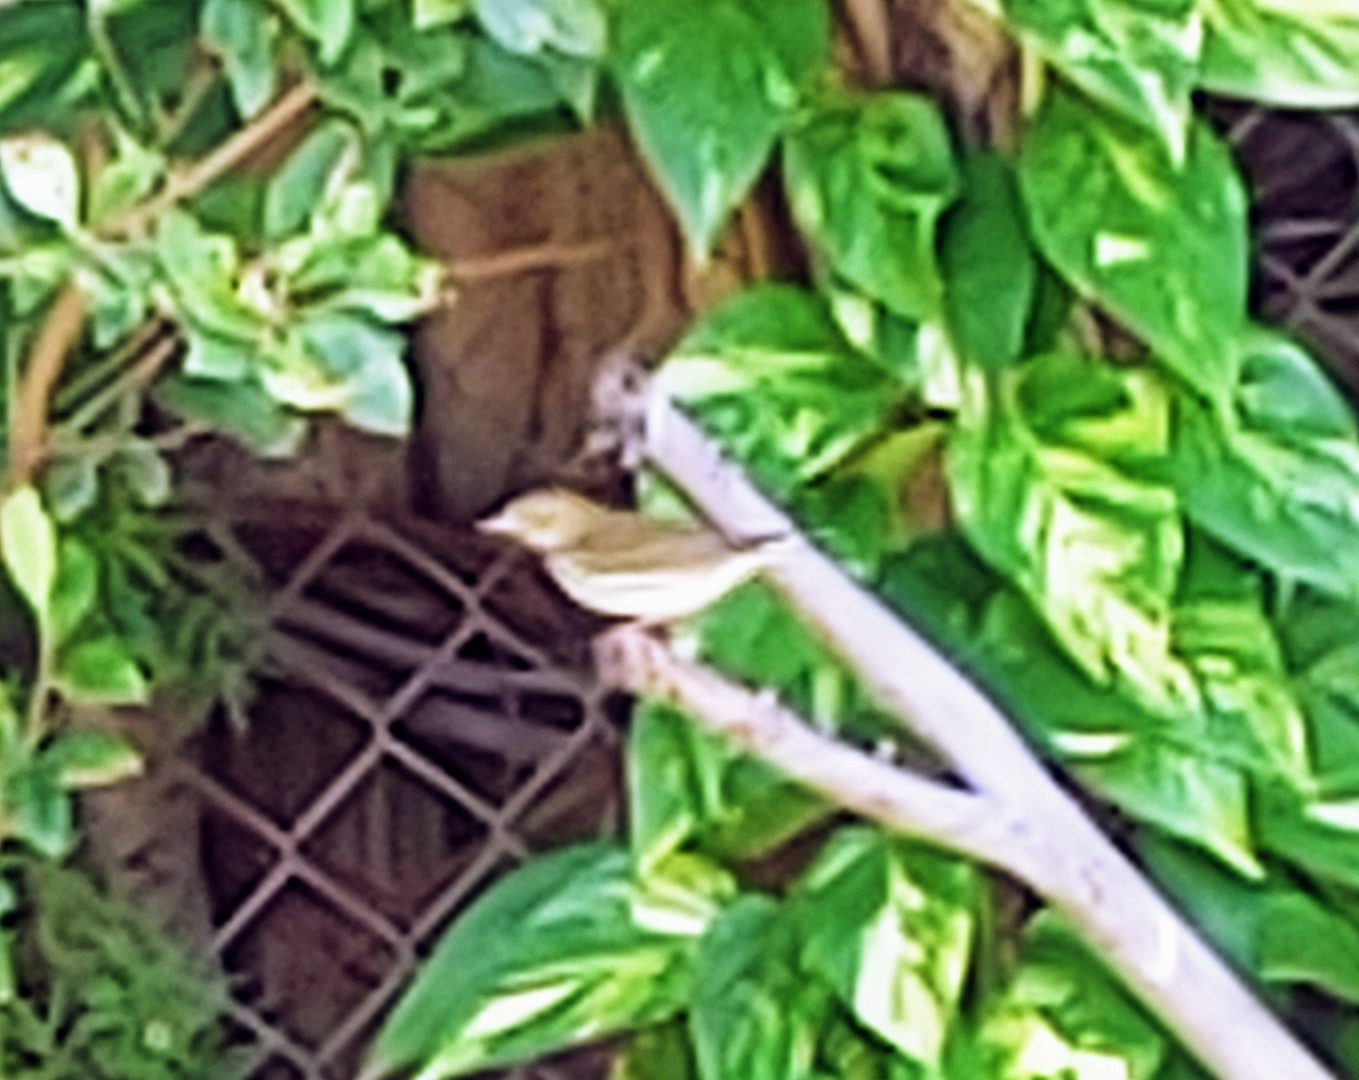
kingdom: Animalia
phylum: Chordata
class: Aves
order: Passeriformes
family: Parulidae
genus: Seiurus
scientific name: Seiurus aurocapilla
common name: Ovenbird
